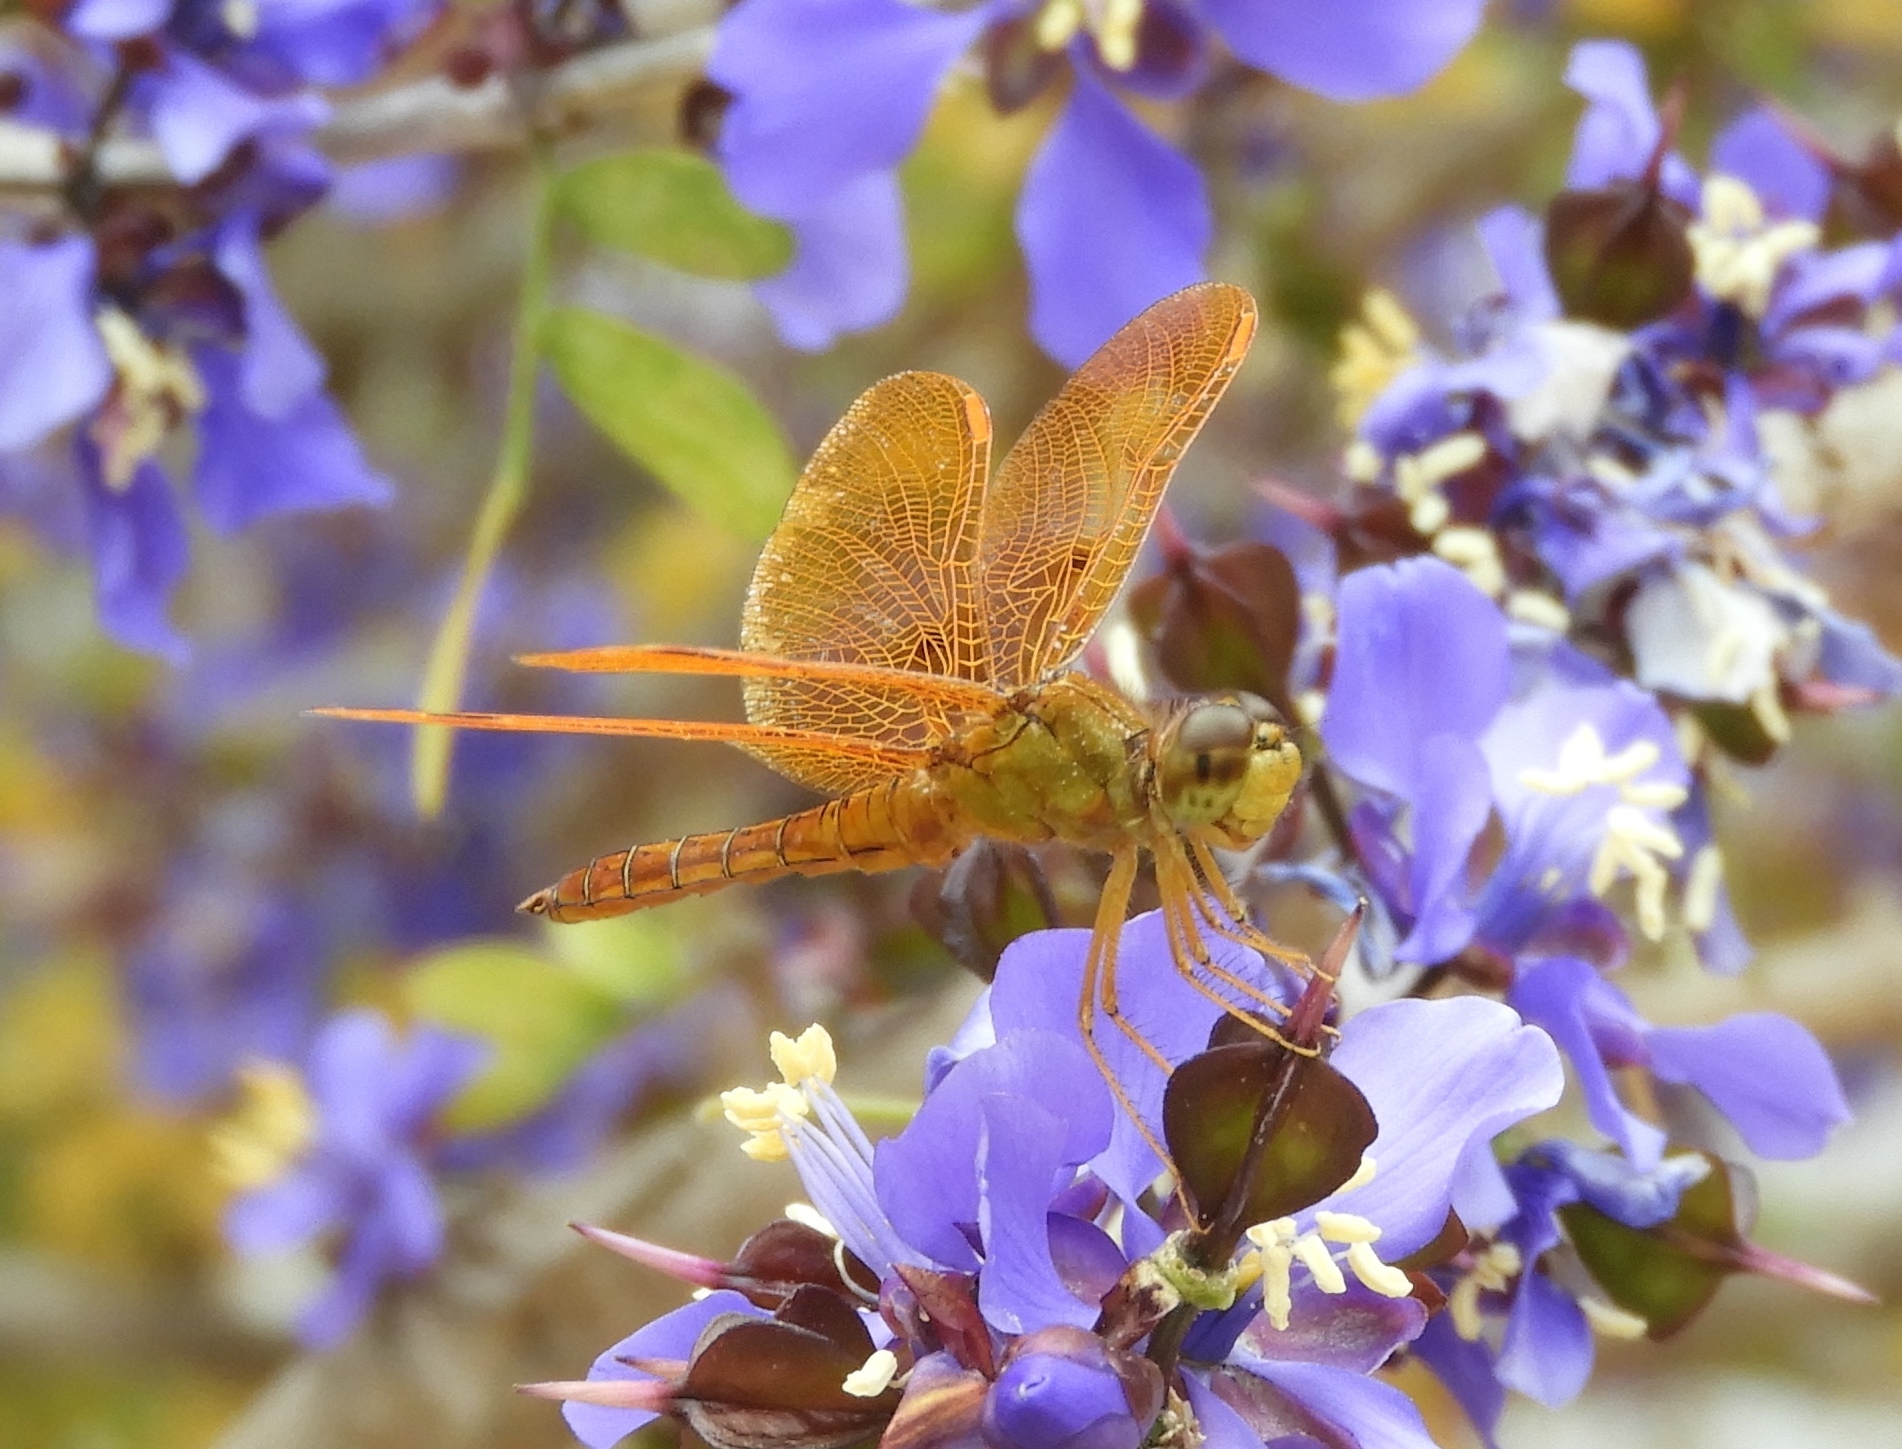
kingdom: Animalia
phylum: Arthropoda
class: Insecta
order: Odonata
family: Libellulidae
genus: Perithemis
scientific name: Perithemis intensa
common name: Mexican amberwing
